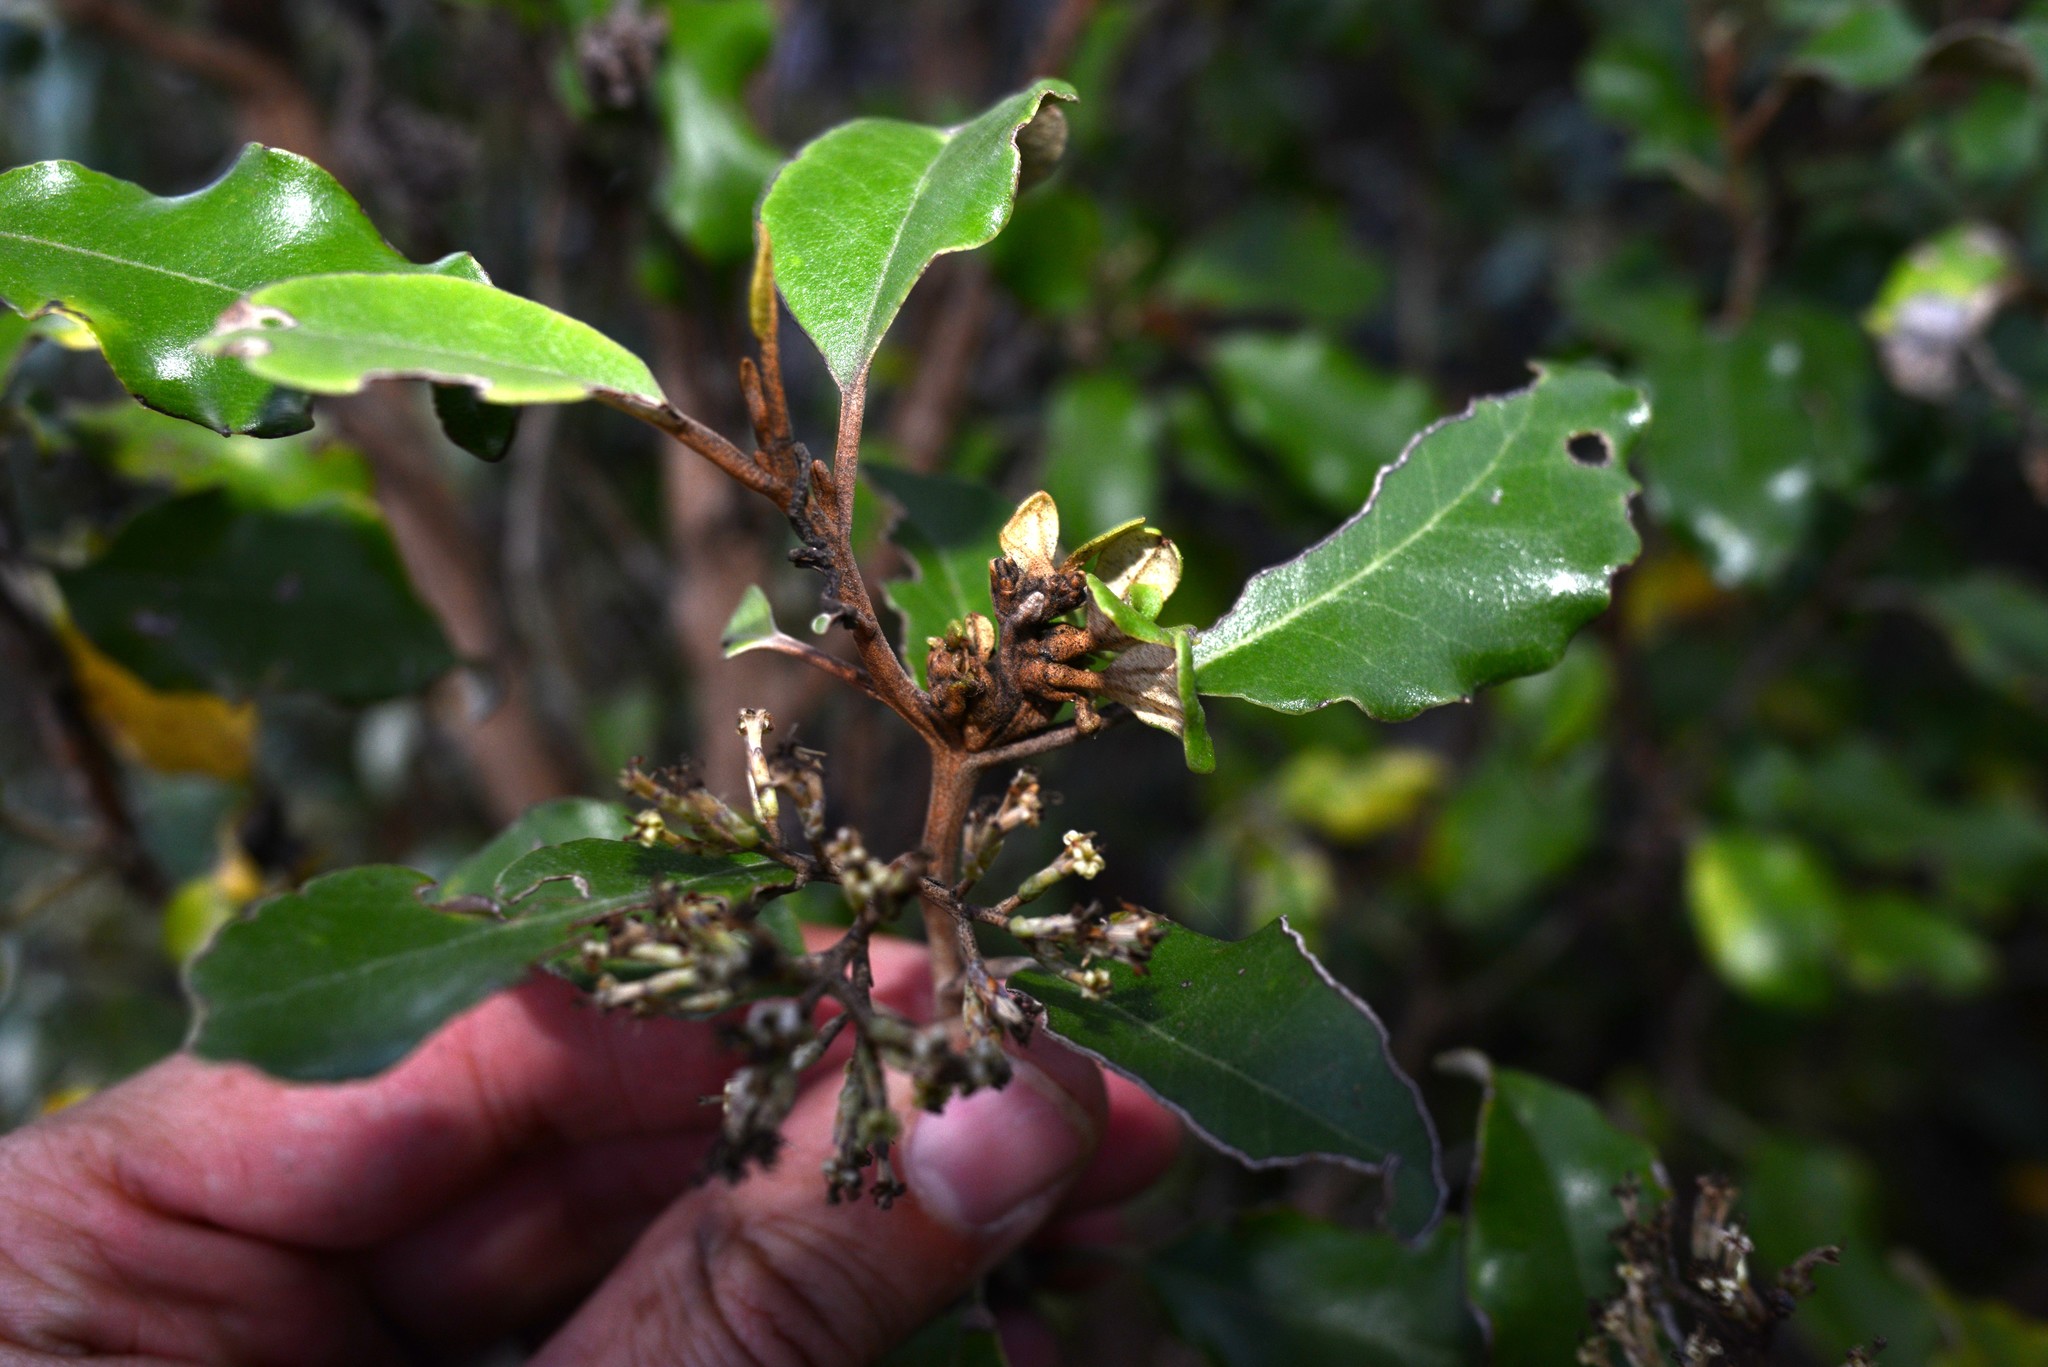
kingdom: Animalia
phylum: Arthropoda
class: Insecta
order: Diptera
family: Cecidomyiidae
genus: Oligotrophus
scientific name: Oligotrophus
